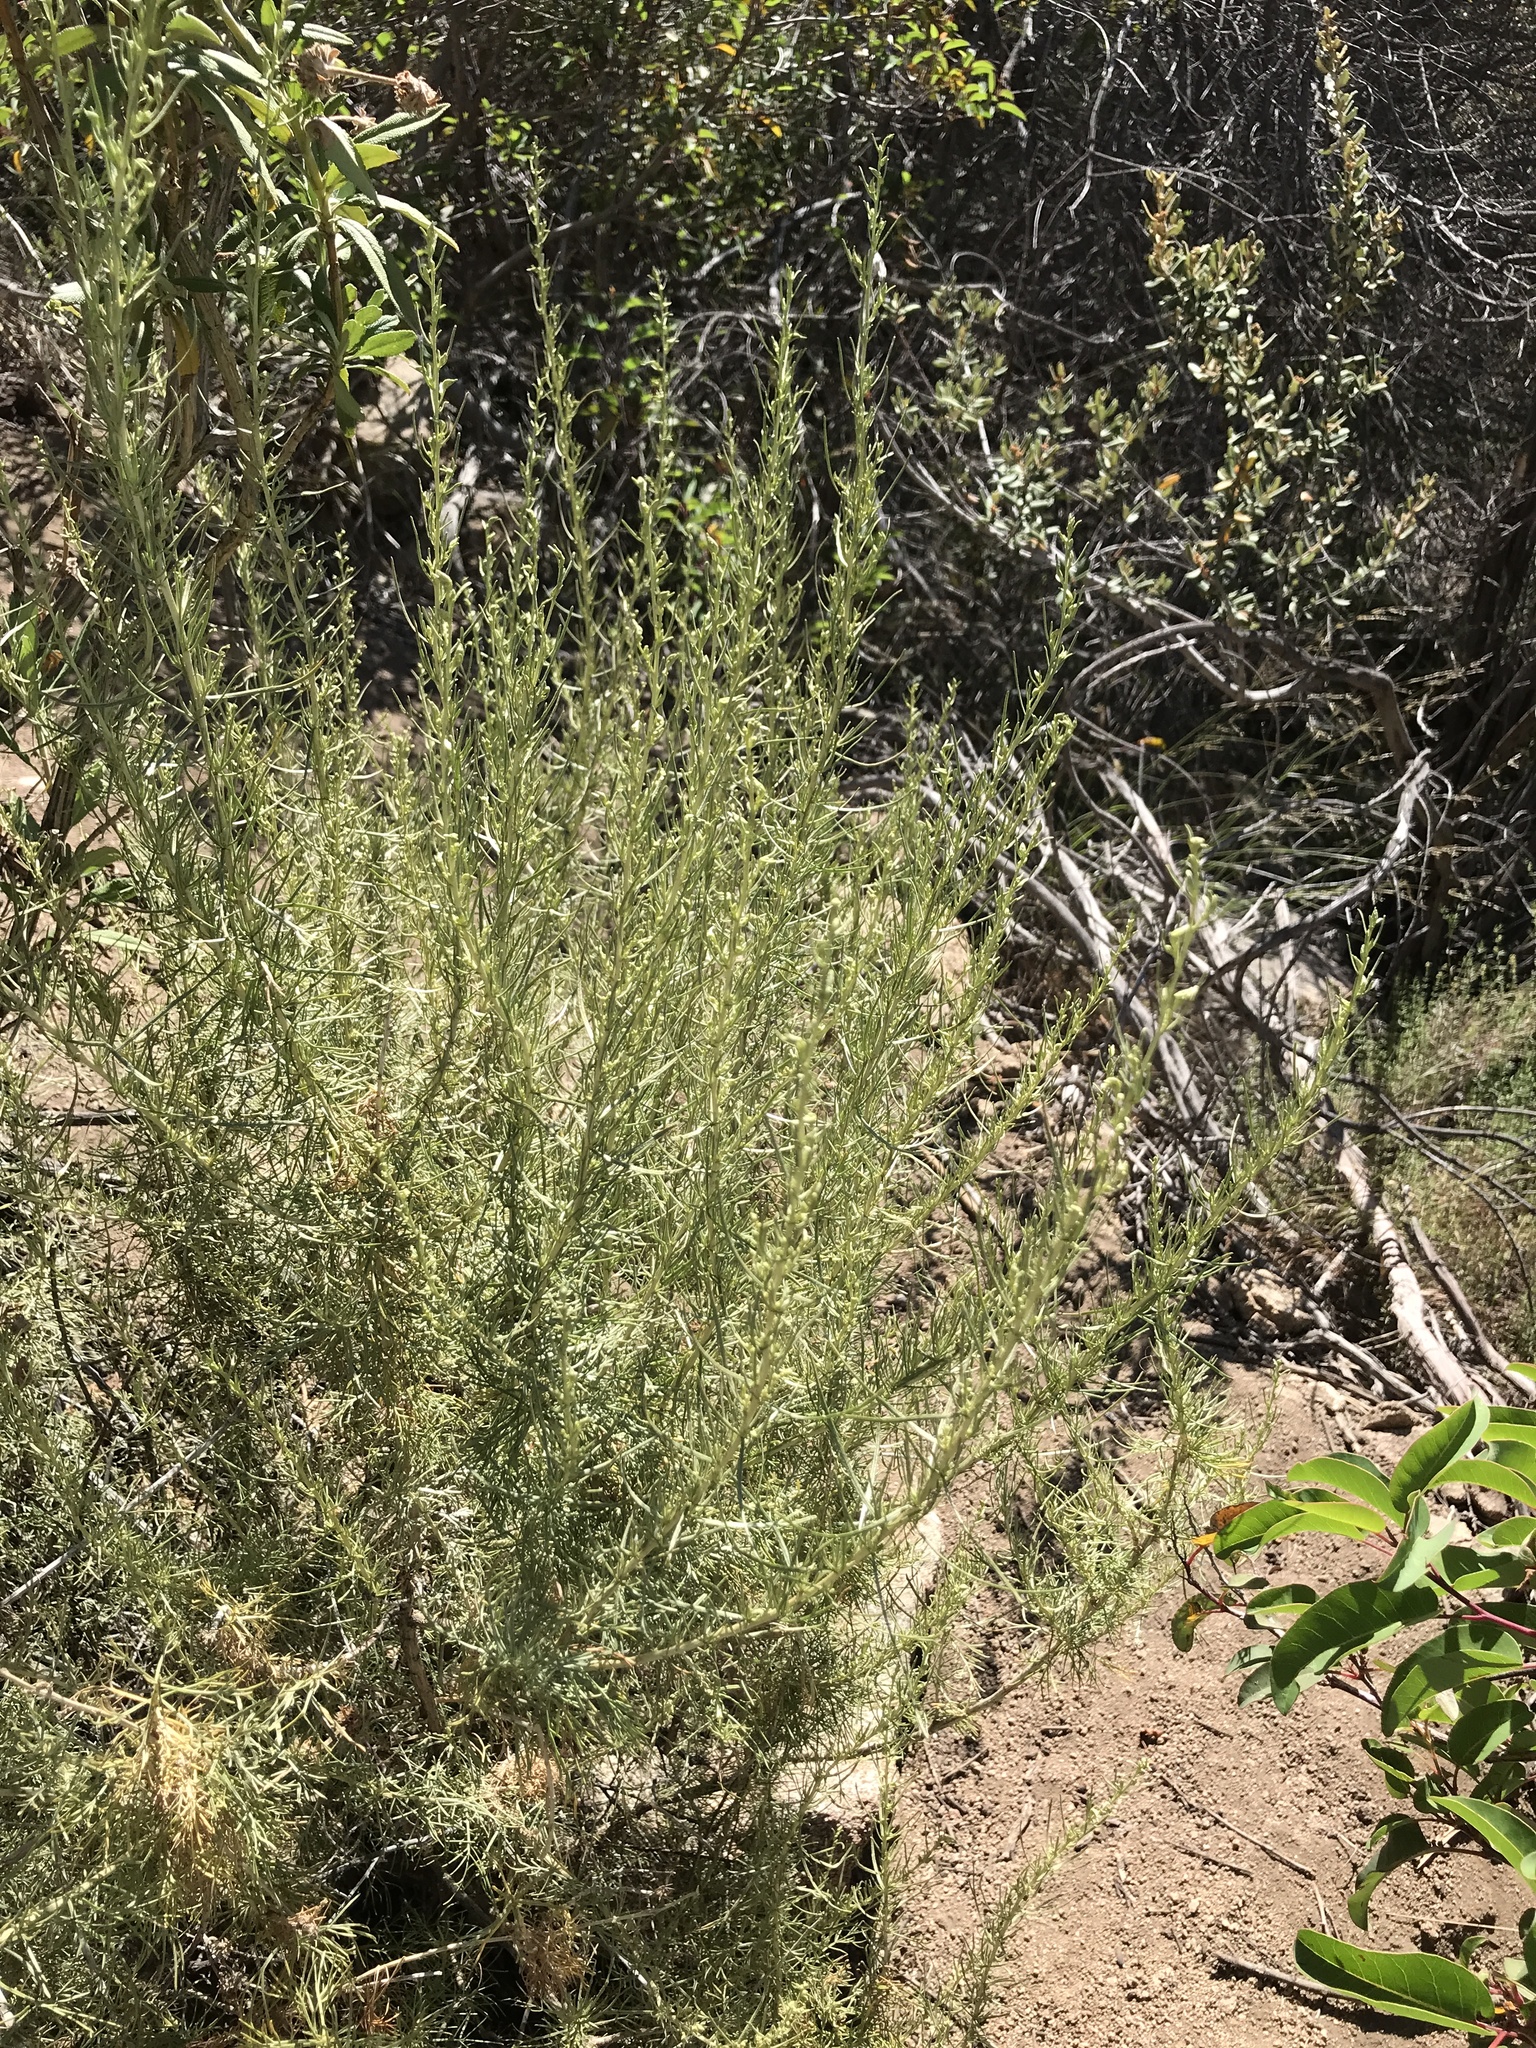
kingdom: Plantae
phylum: Tracheophyta
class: Magnoliopsida
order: Asterales
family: Asteraceae
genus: Artemisia
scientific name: Artemisia californica
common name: California sagebrush
